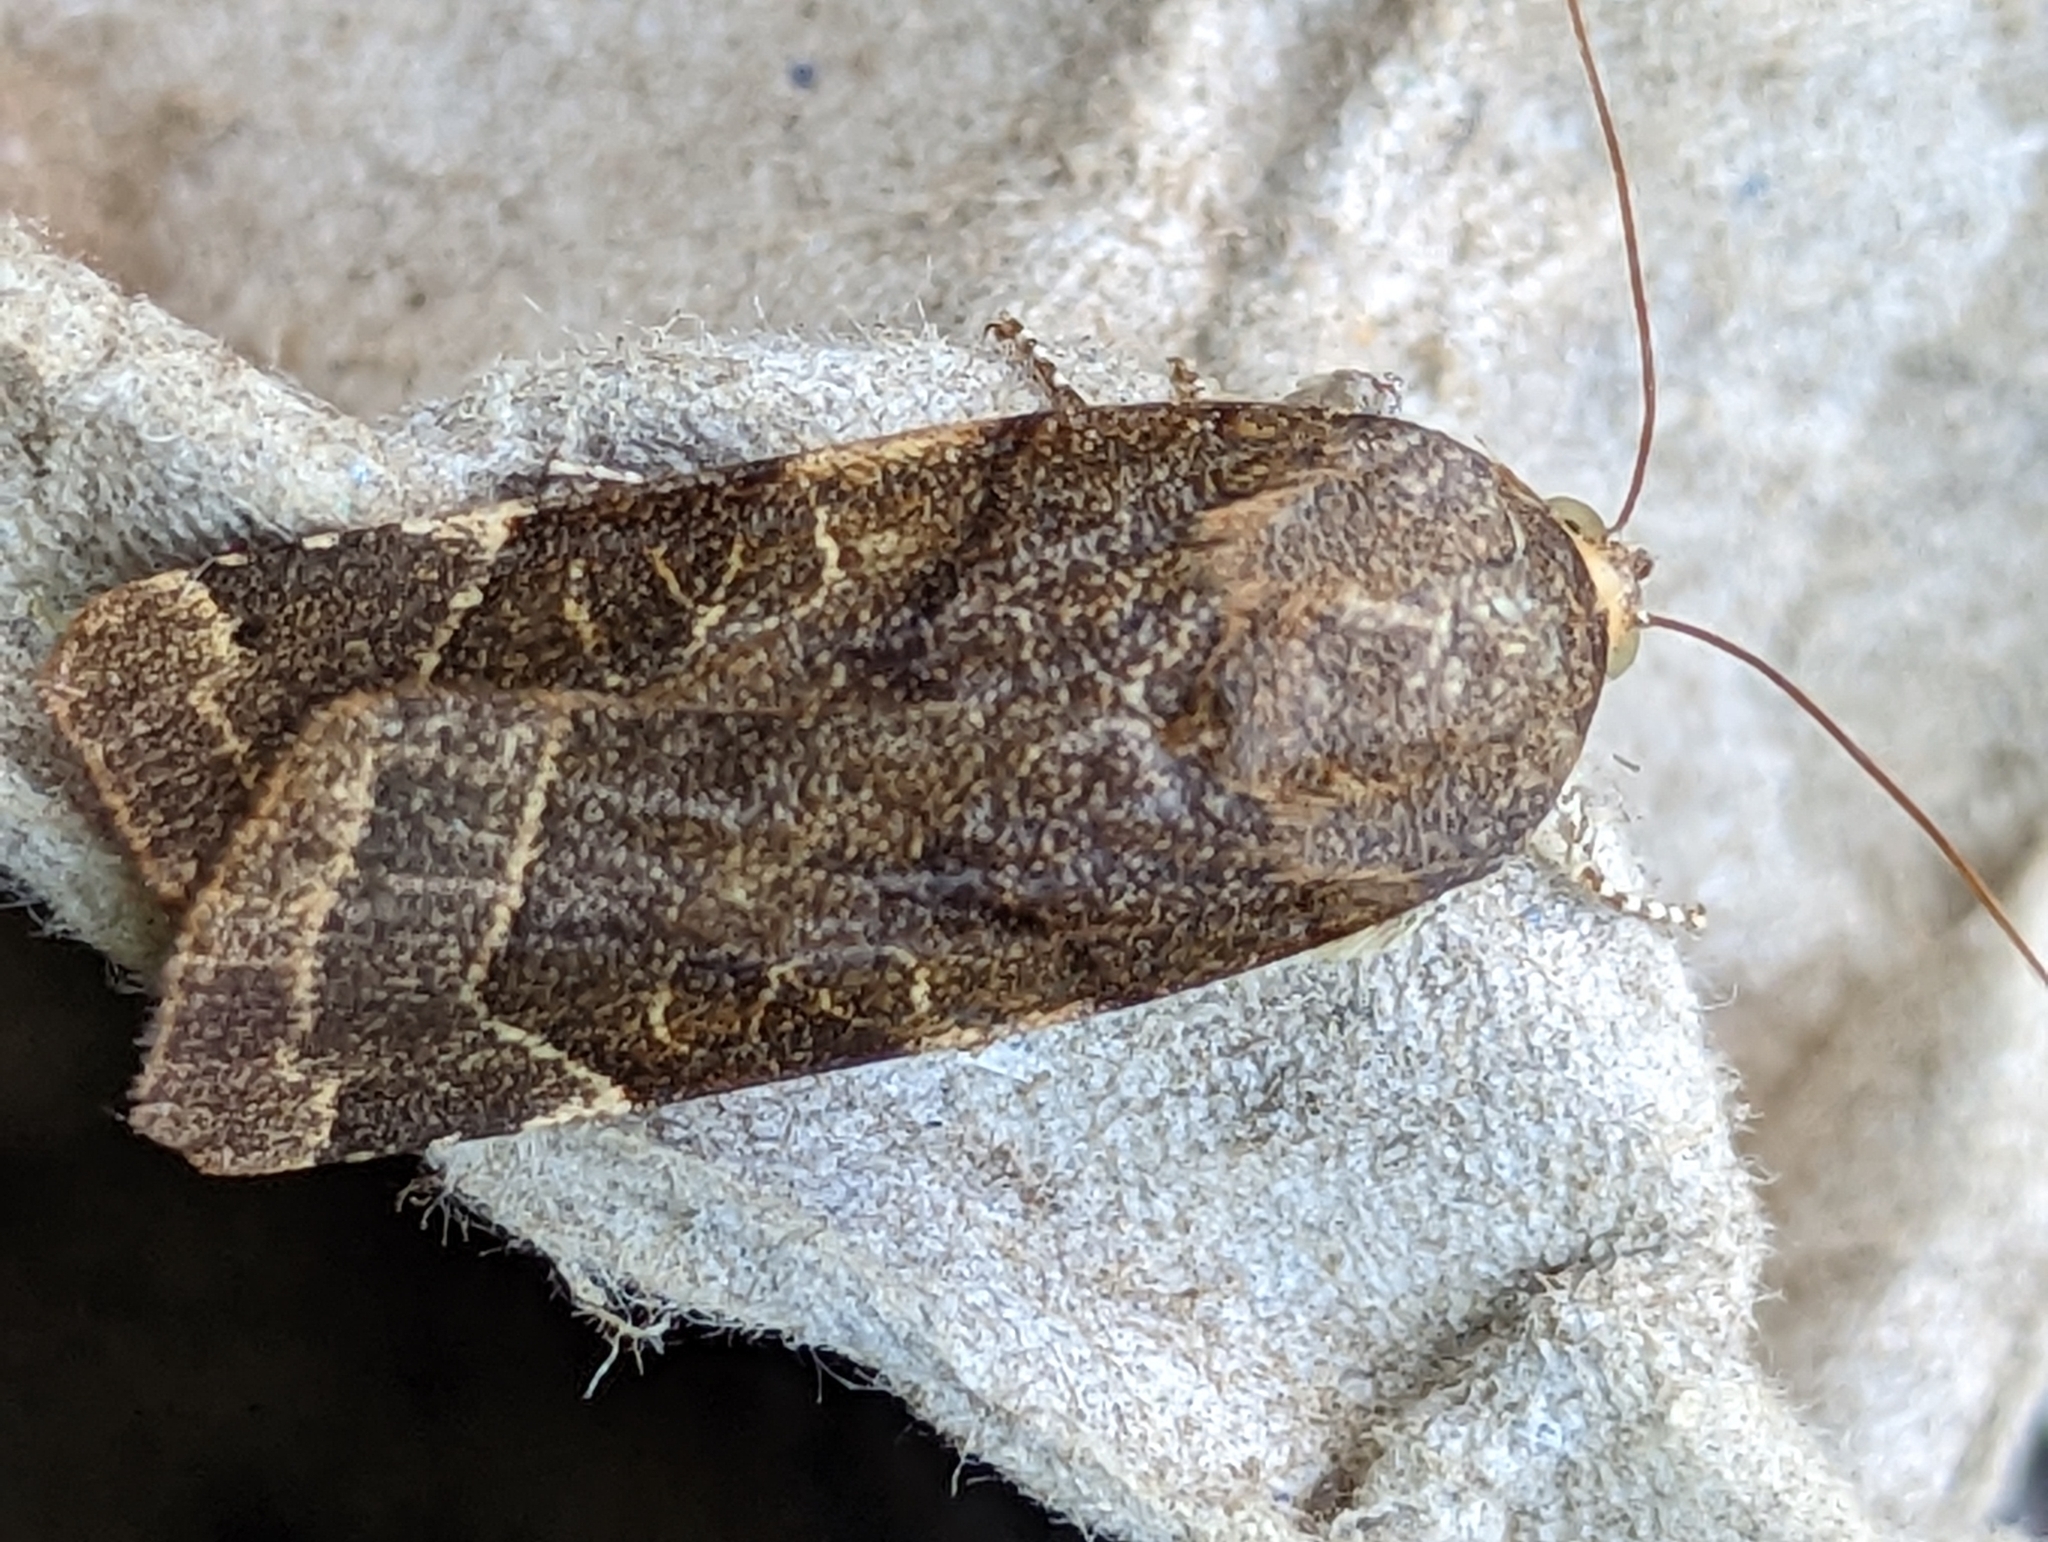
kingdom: Animalia
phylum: Arthropoda
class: Insecta
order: Lepidoptera
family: Noctuidae
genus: Noctua
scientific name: Noctua fimbriata
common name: Broad-bordered yellow underwing
